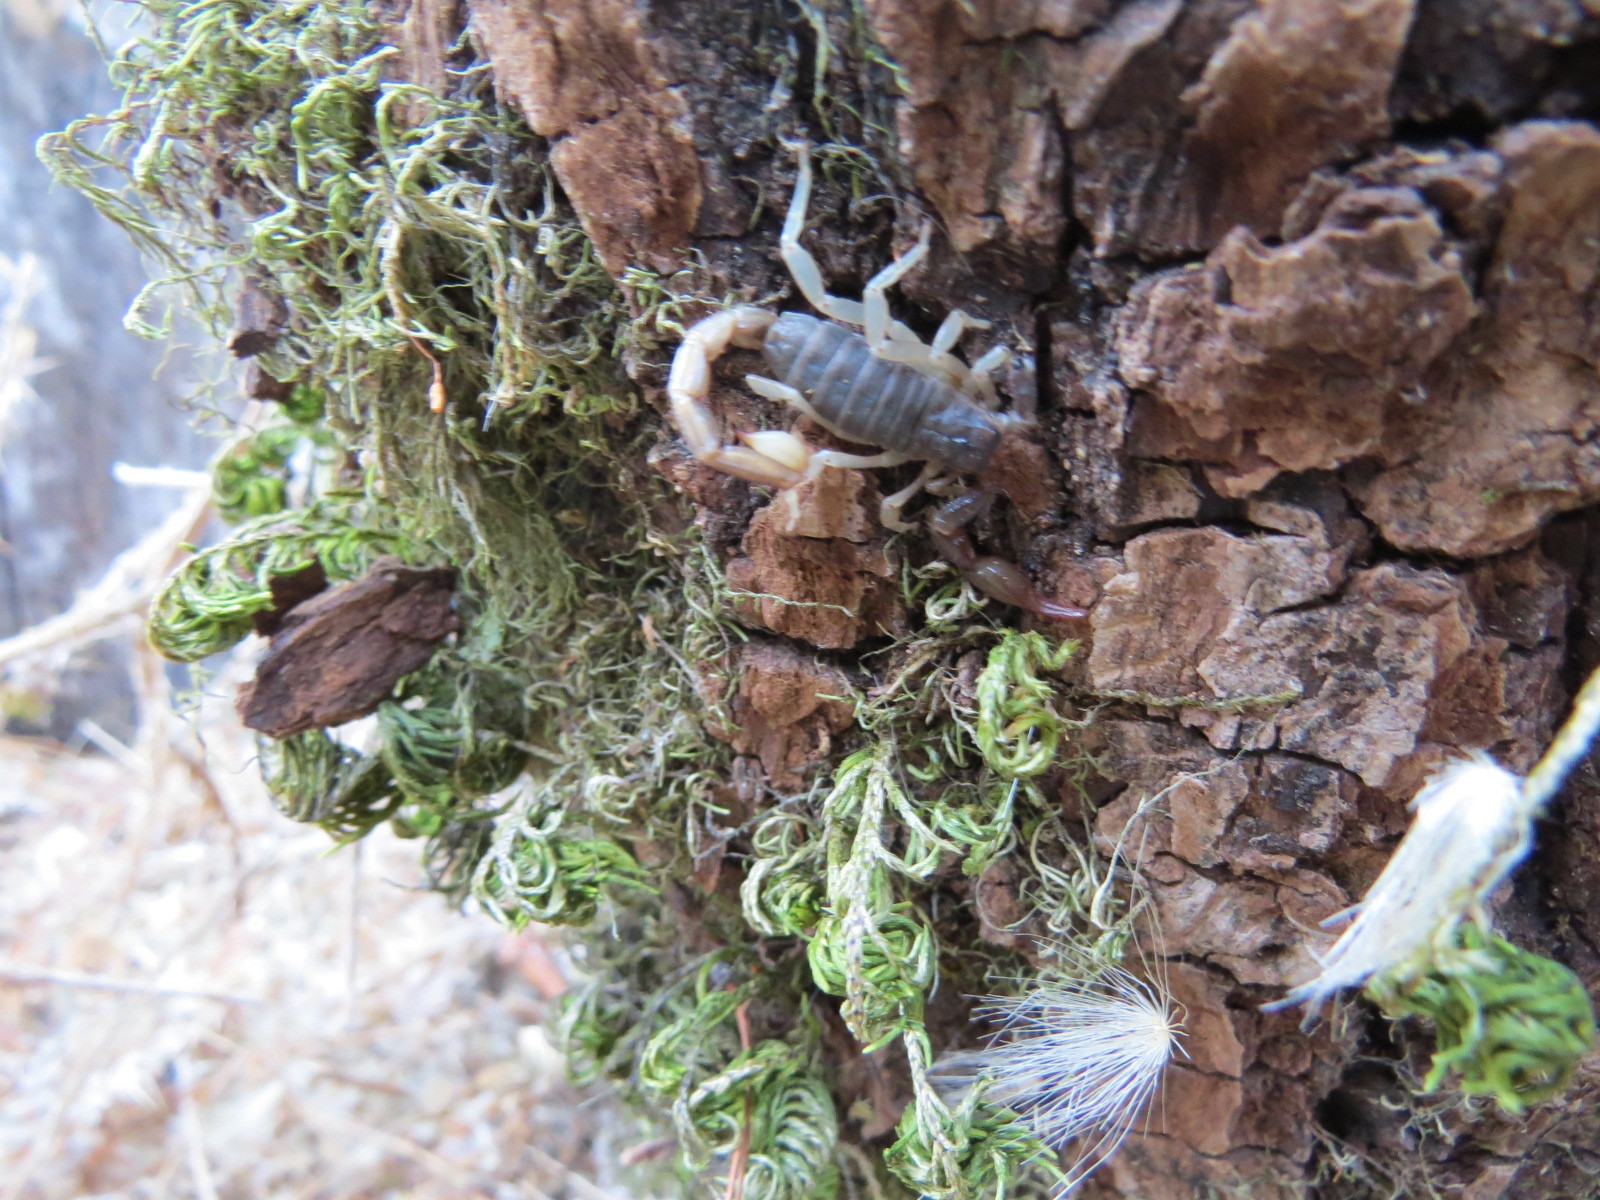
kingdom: Animalia
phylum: Arthropoda
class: Arachnida
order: Scorpiones
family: Chactidae
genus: Uroctonus
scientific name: Uroctonus mordax
